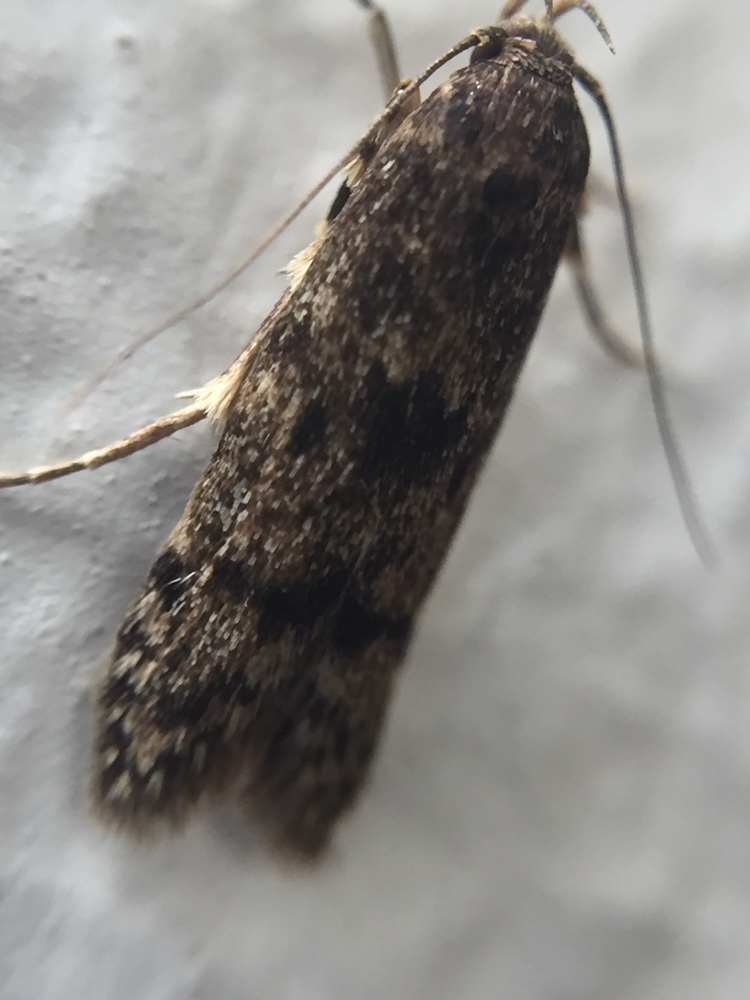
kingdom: Animalia
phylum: Arthropoda
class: Insecta
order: Lepidoptera
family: Blastobasidae
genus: Blastobasis
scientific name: Blastobasis marmorosella
